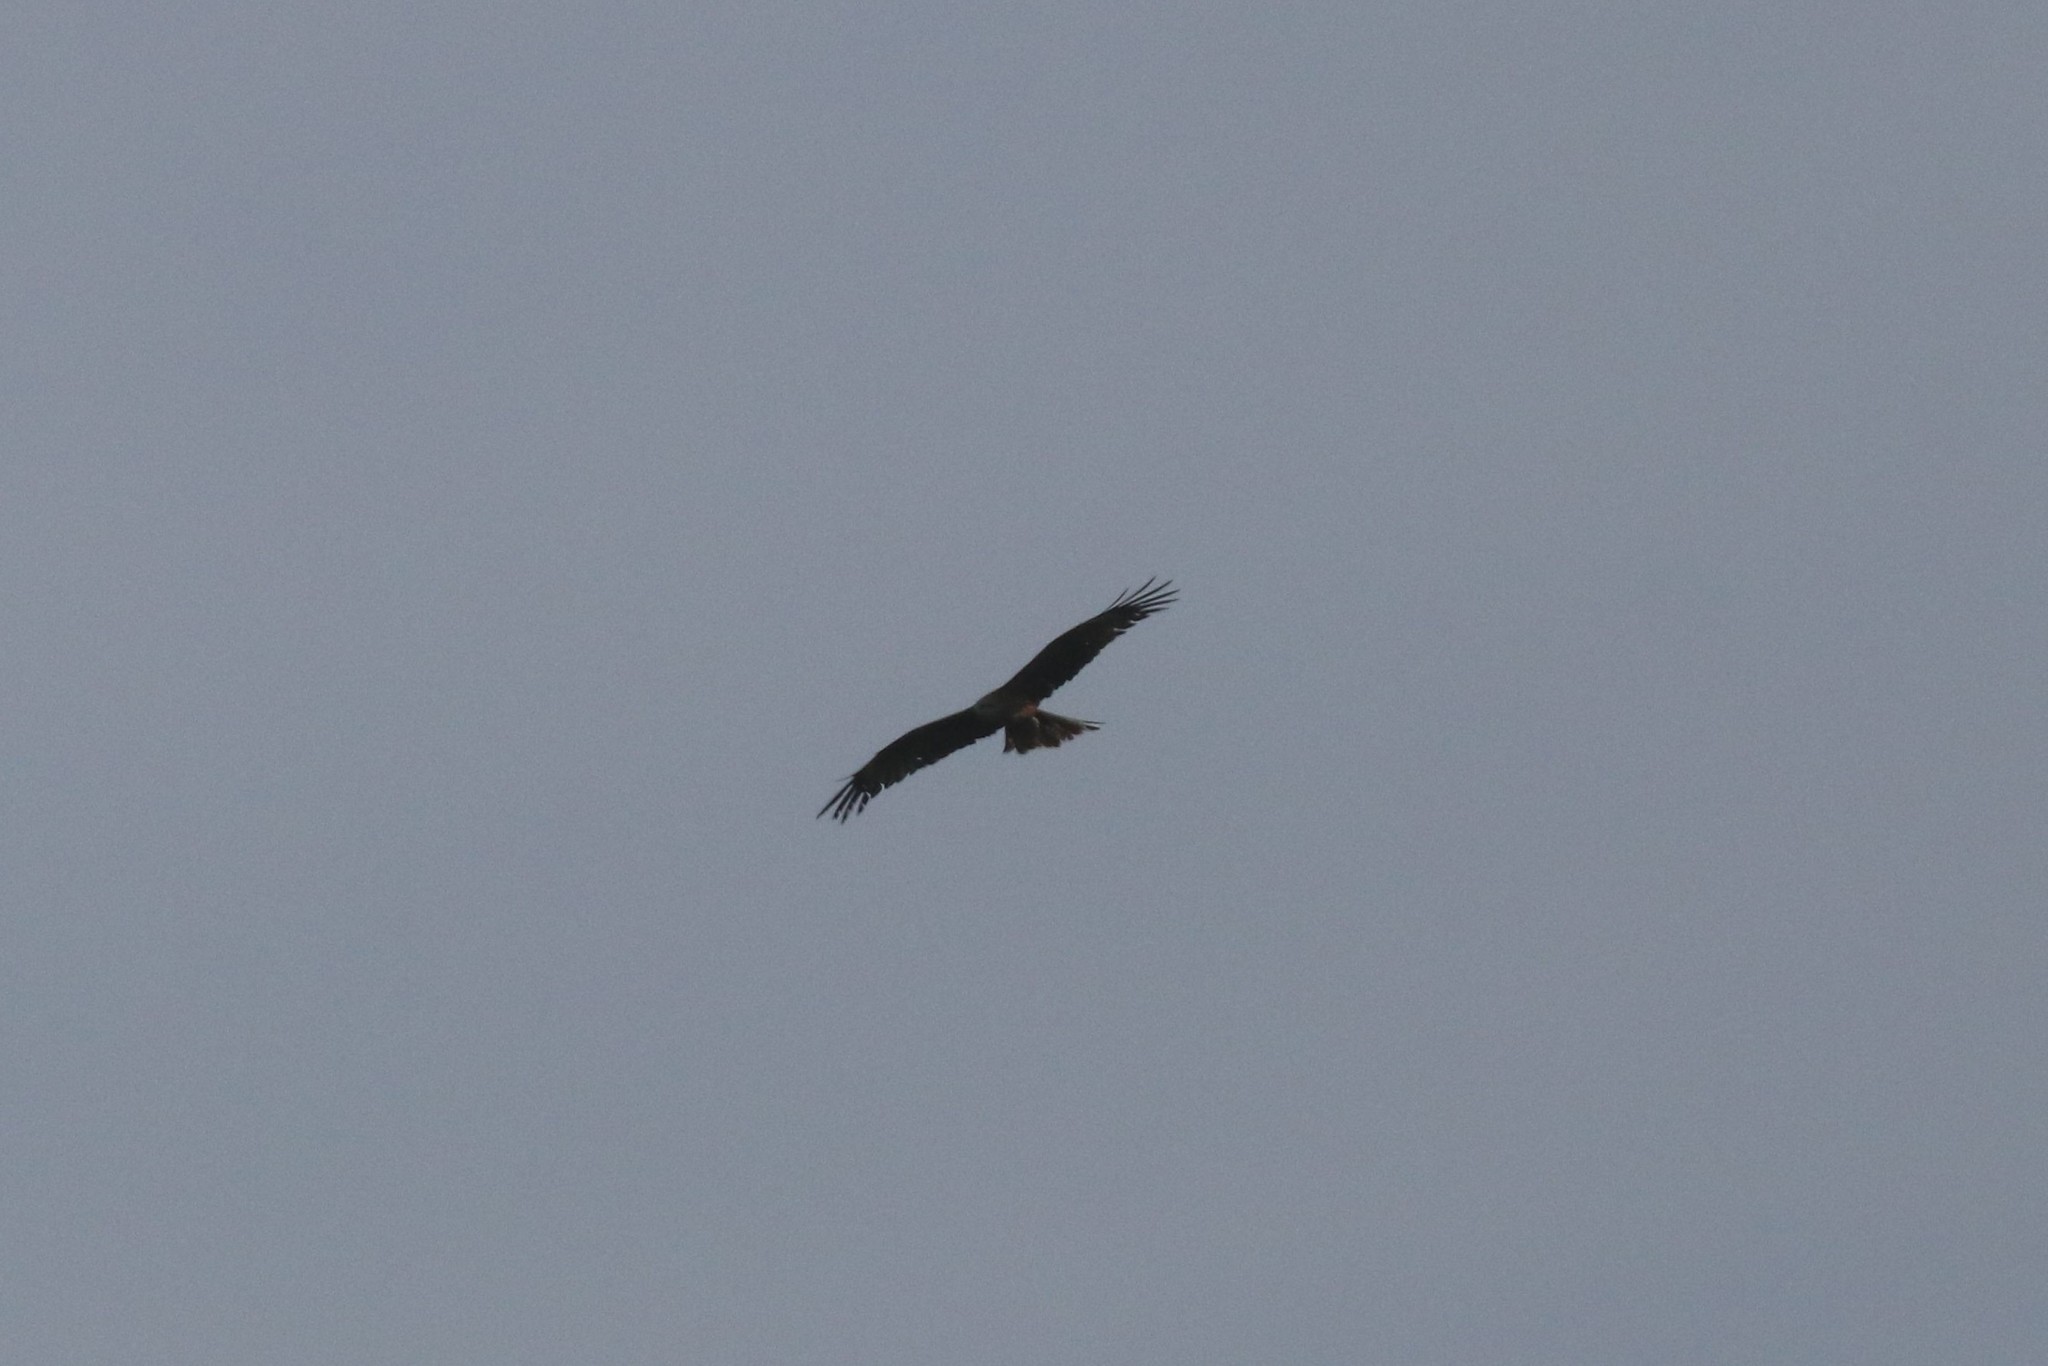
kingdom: Animalia
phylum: Chordata
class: Aves
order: Accipitriformes
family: Accipitridae
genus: Milvus
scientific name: Milvus migrans
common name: Black kite
